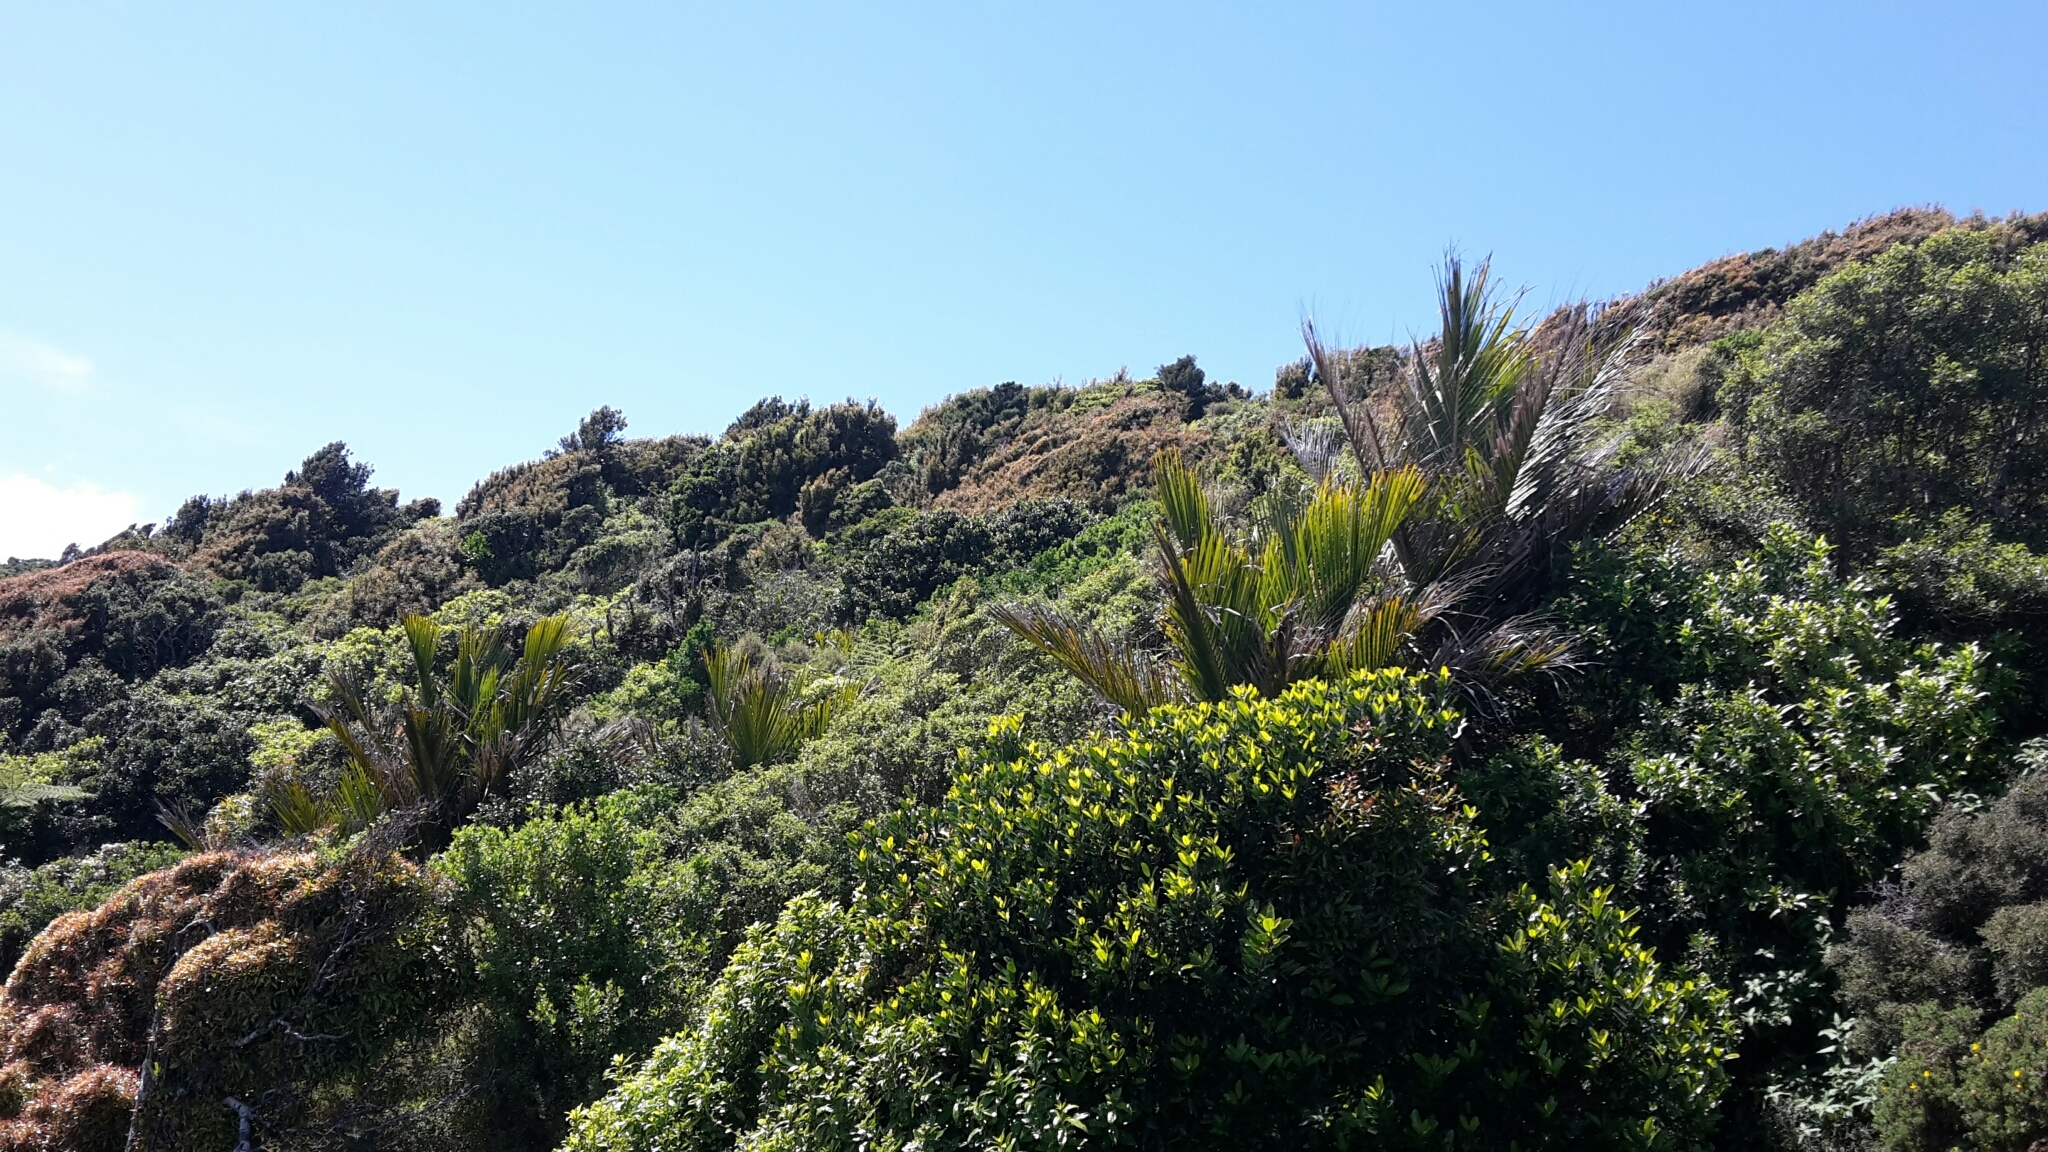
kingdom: Plantae
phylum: Tracheophyta
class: Liliopsida
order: Arecales
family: Arecaceae
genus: Rhopalostylis
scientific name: Rhopalostylis sapida
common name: Feather-duster palm
